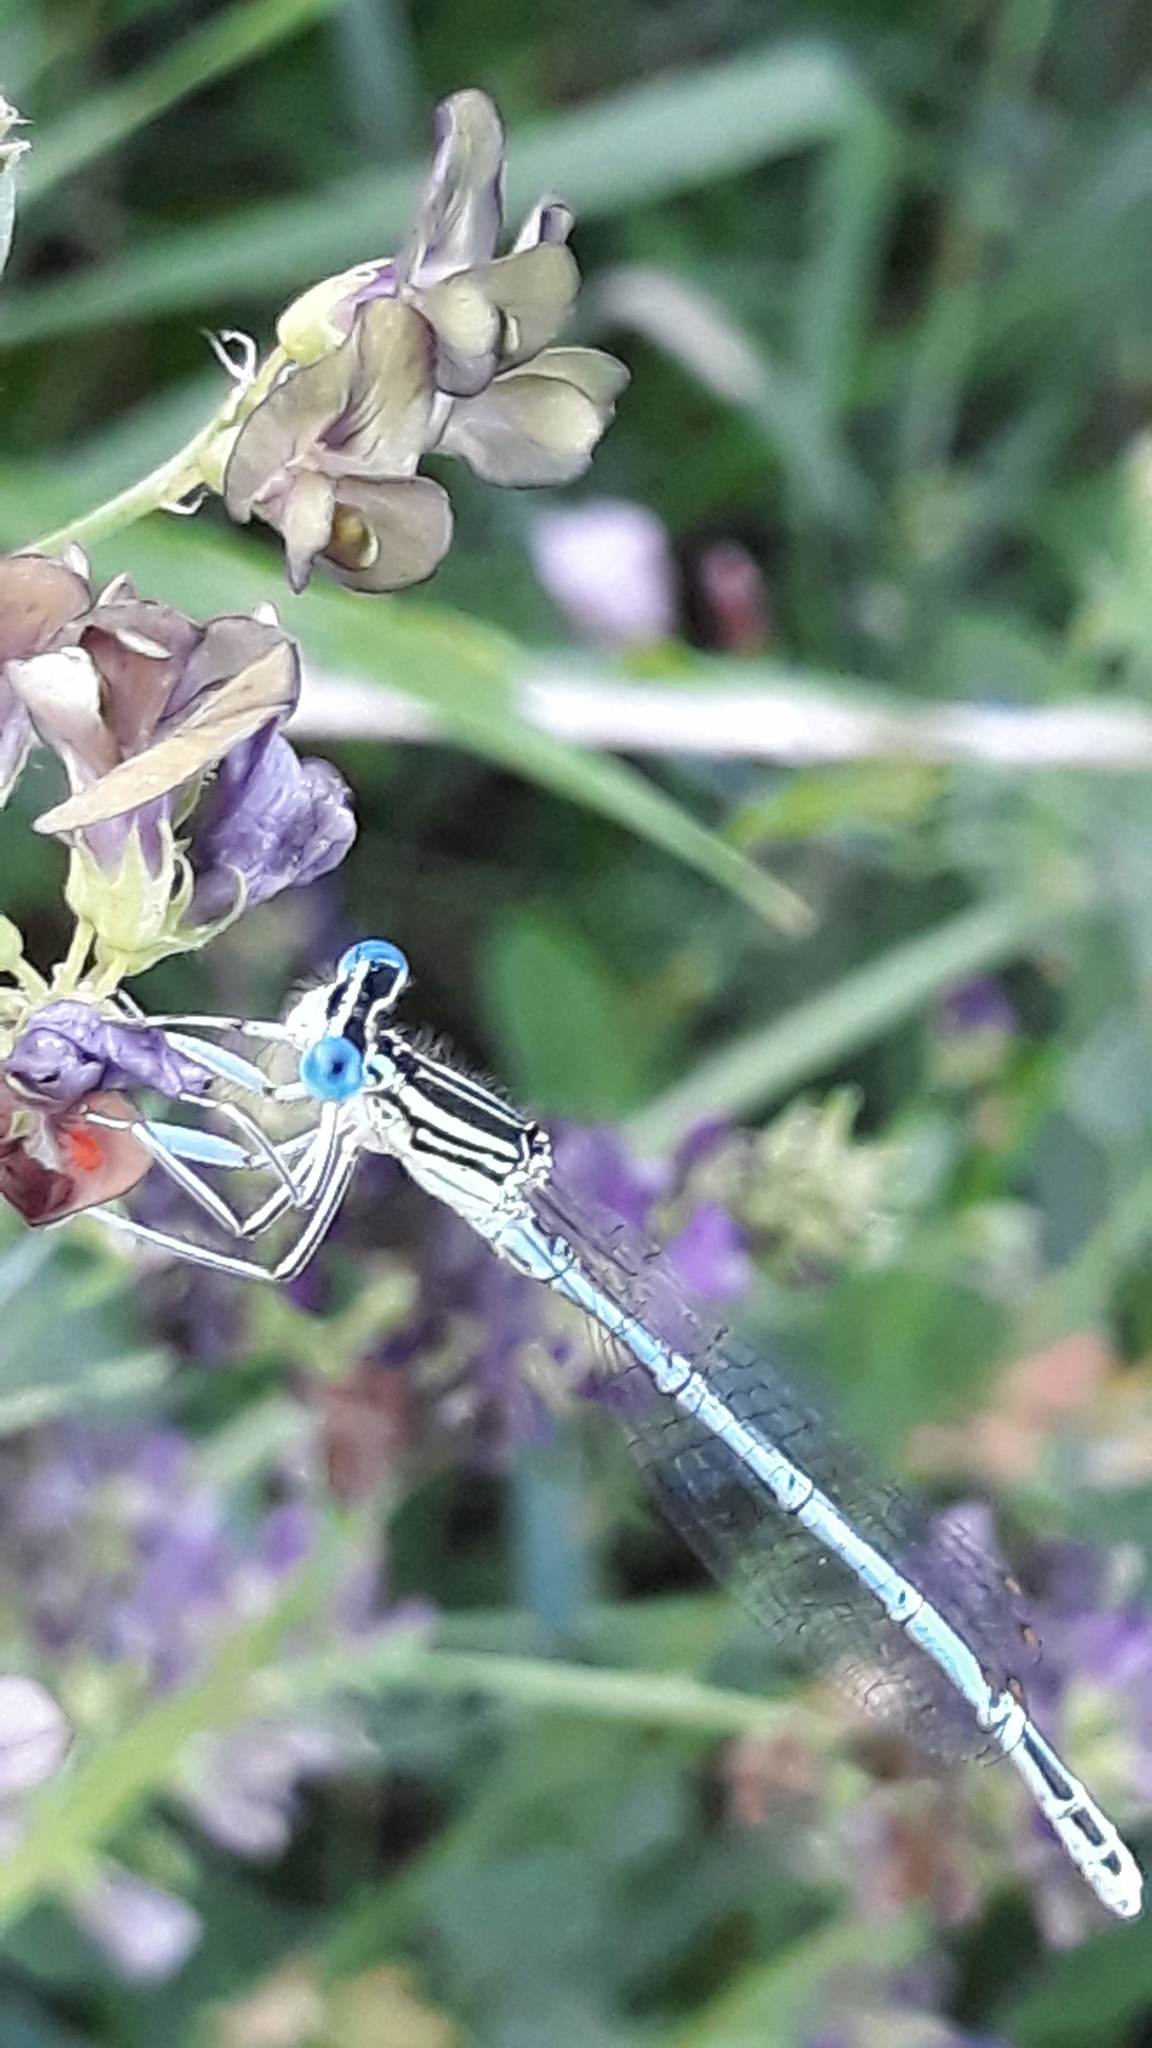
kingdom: Animalia
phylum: Arthropoda
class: Insecta
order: Odonata
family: Platycnemididae
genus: Platycnemis
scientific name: Platycnemis pennipes
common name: White-legged damselfly
